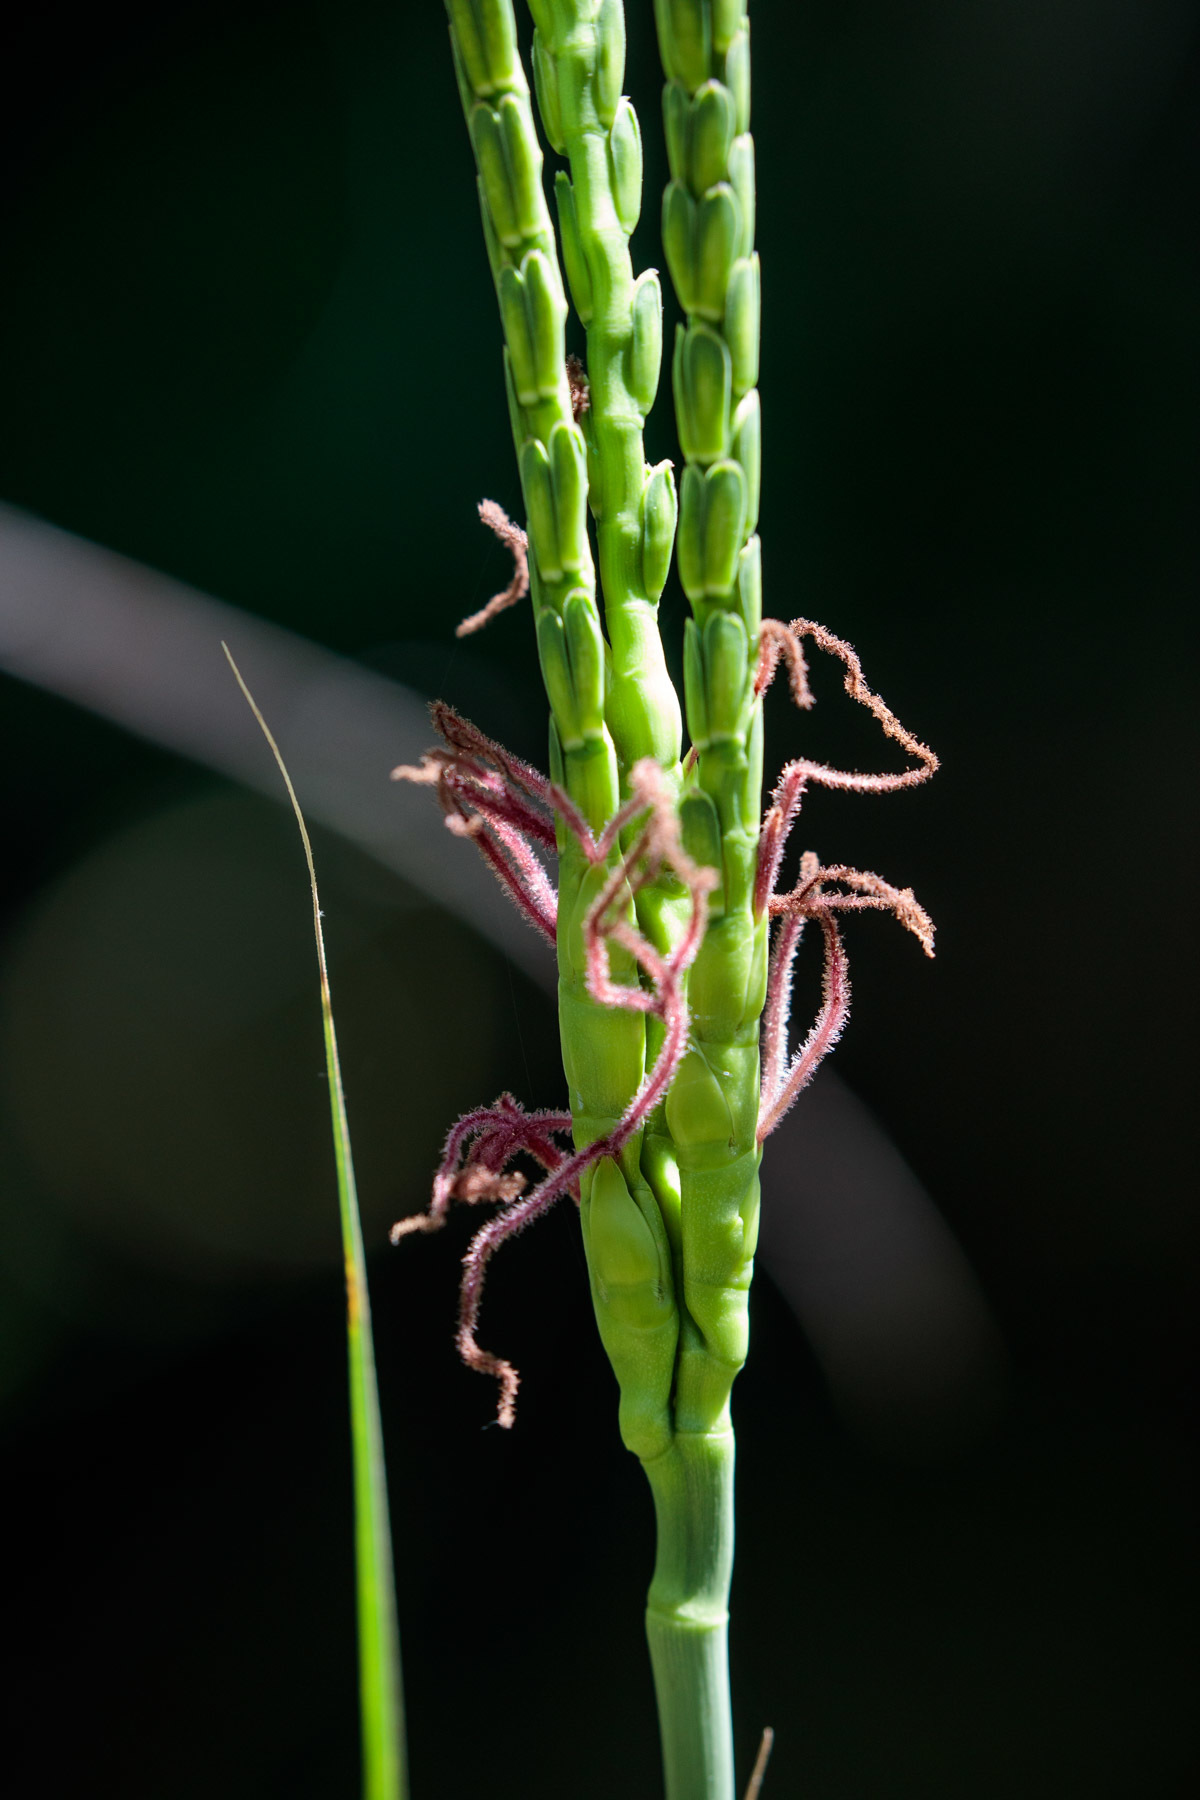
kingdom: Plantae
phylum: Tracheophyta
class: Liliopsida
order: Poales
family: Poaceae
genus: Tripsacum
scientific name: Tripsacum dactyloides
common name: Buffalo-grass
